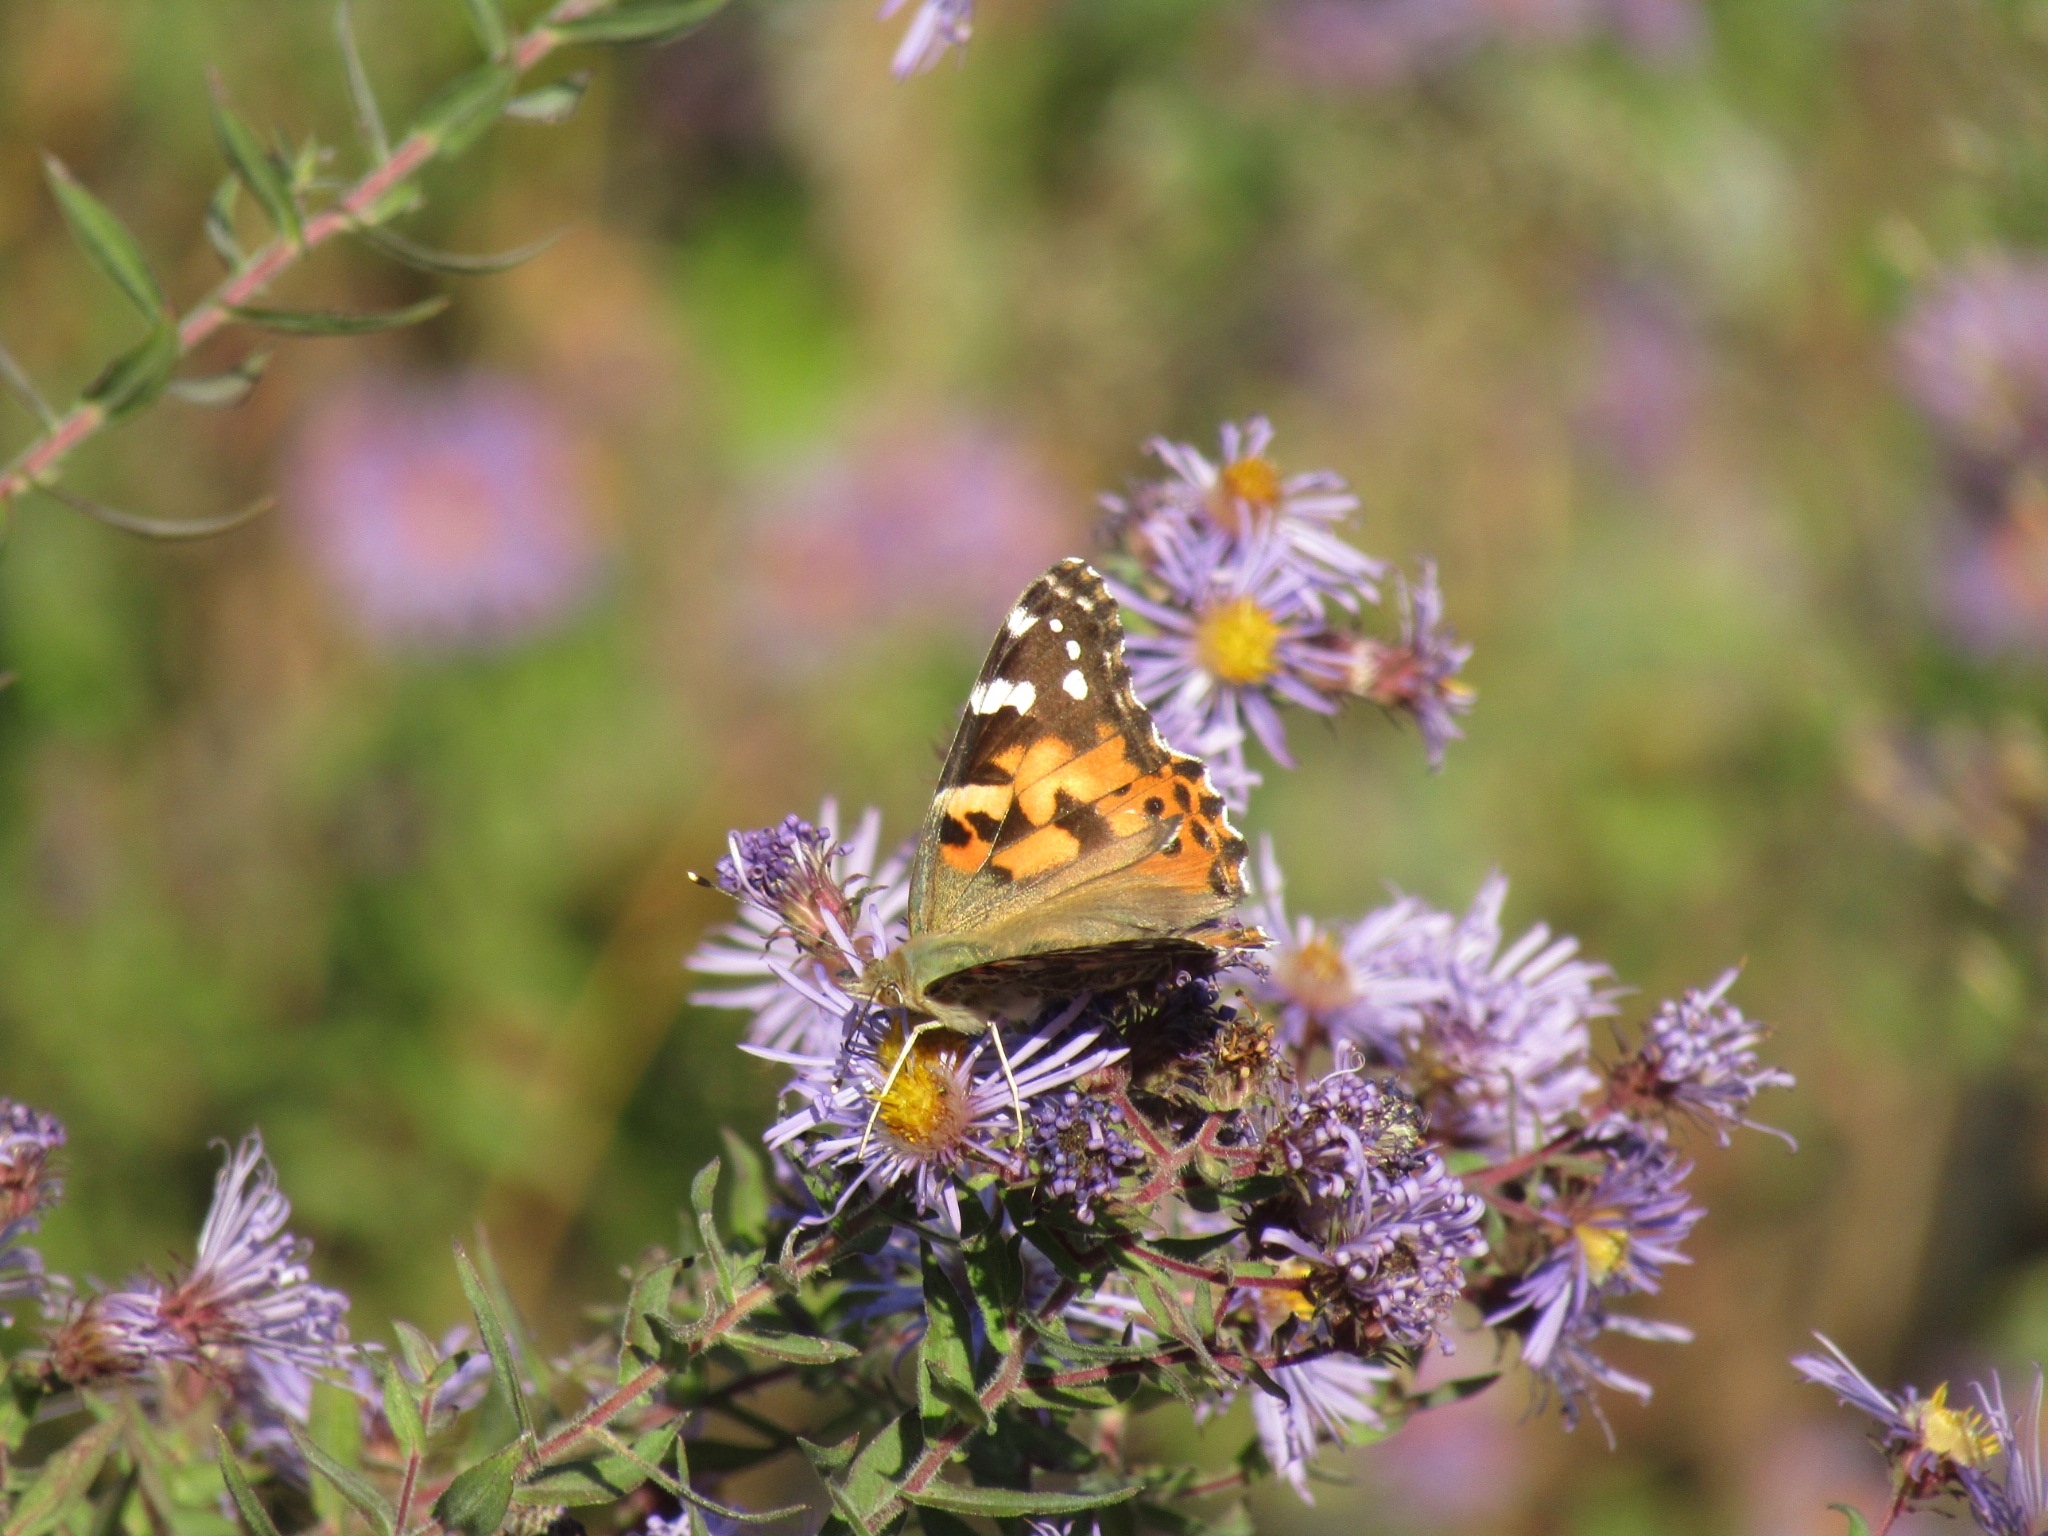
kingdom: Animalia
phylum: Arthropoda
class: Insecta
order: Lepidoptera
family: Nymphalidae
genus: Vanessa
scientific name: Vanessa cardui
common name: Painted lady
